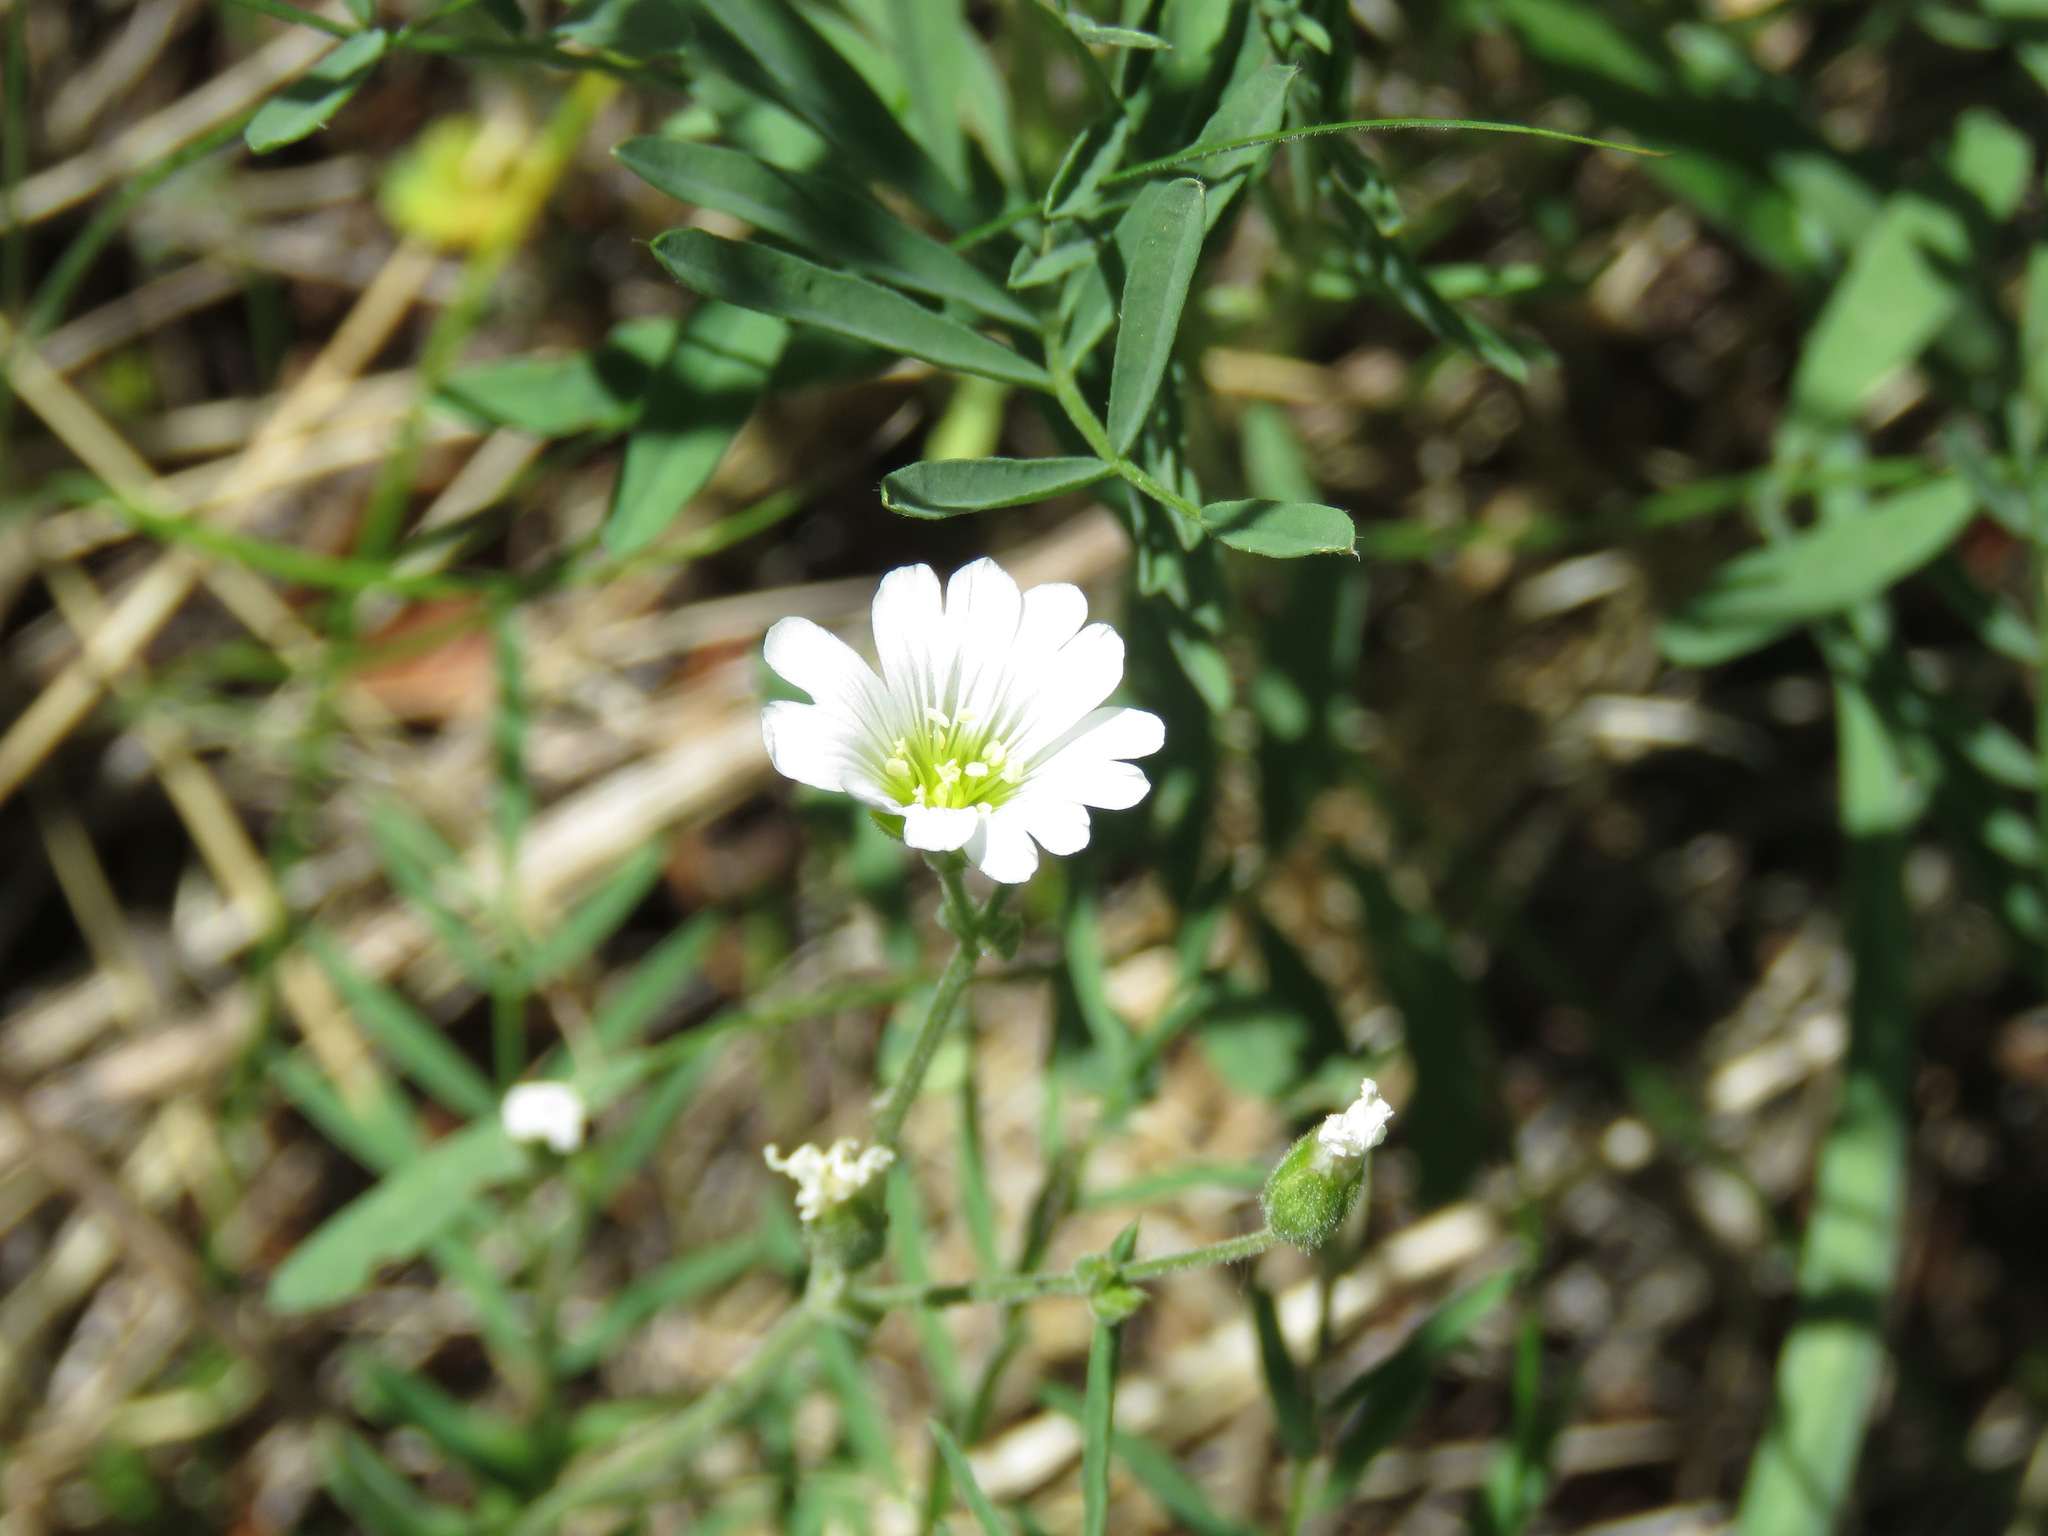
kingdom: Plantae
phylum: Tracheophyta
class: Magnoliopsida
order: Caryophyllales
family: Caryophyllaceae
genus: Cerastium
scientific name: Cerastium arvense
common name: Field mouse-ear
